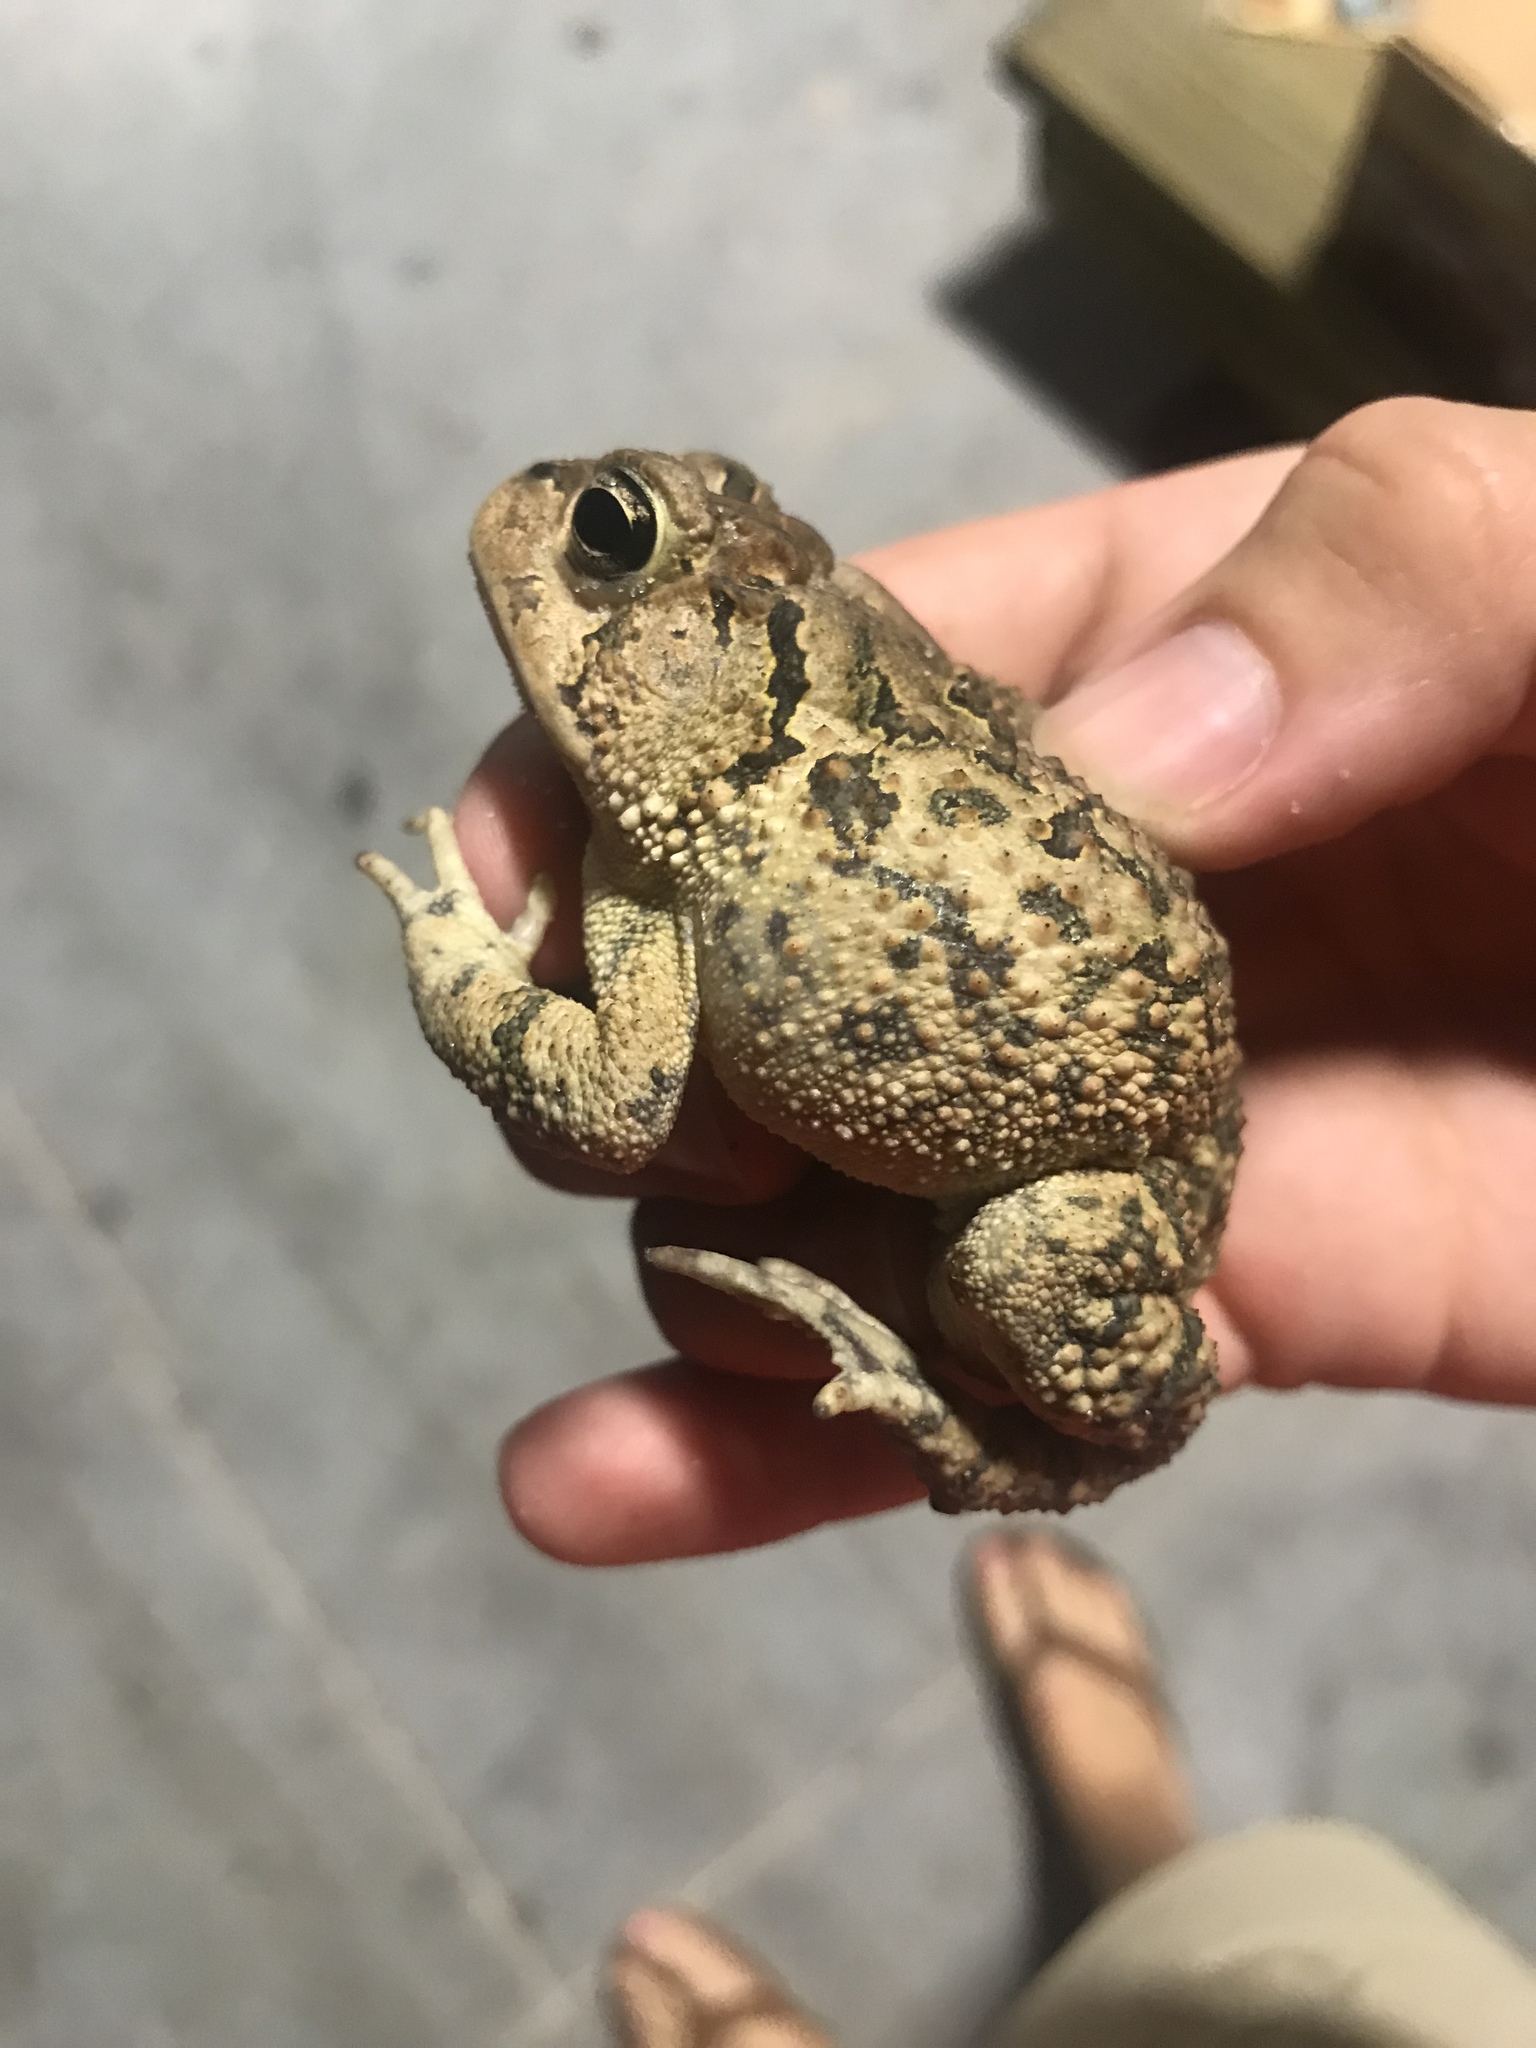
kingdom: Animalia
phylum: Chordata
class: Amphibia
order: Anura
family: Bufonidae
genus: Anaxyrus
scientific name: Anaxyrus terrestris
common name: Southern toad
